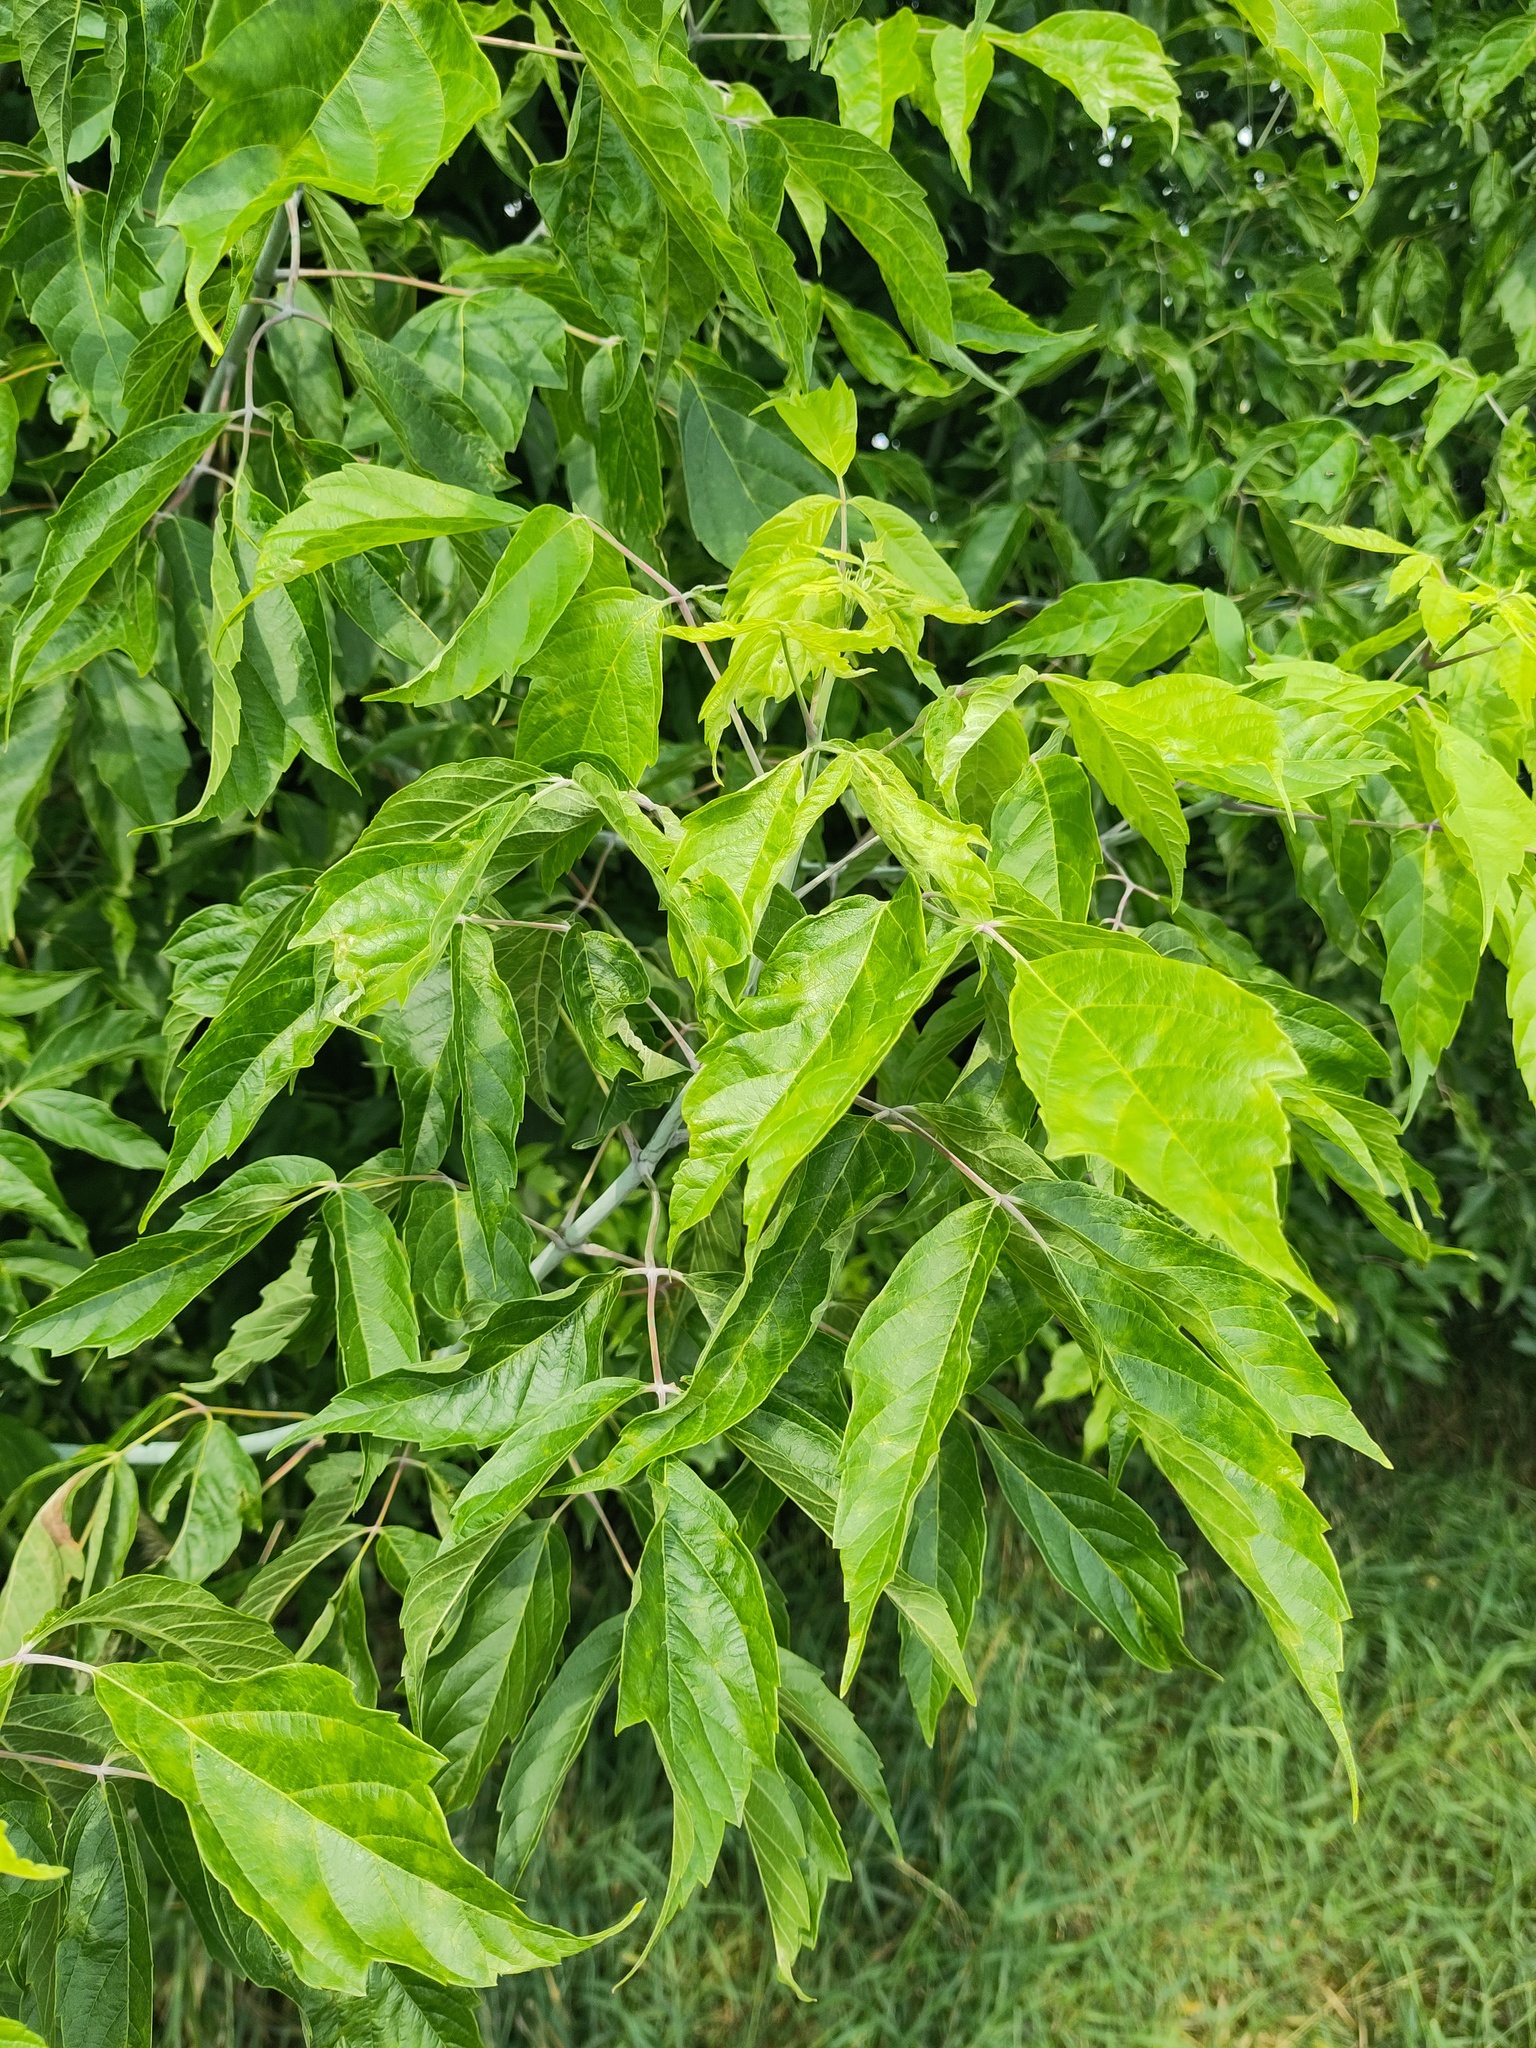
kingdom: Plantae
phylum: Tracheophyta
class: Magnoliopsida
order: Sapindales
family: Sapindaceae
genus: Acer
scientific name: Acer negundo
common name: Ashleaf maple
